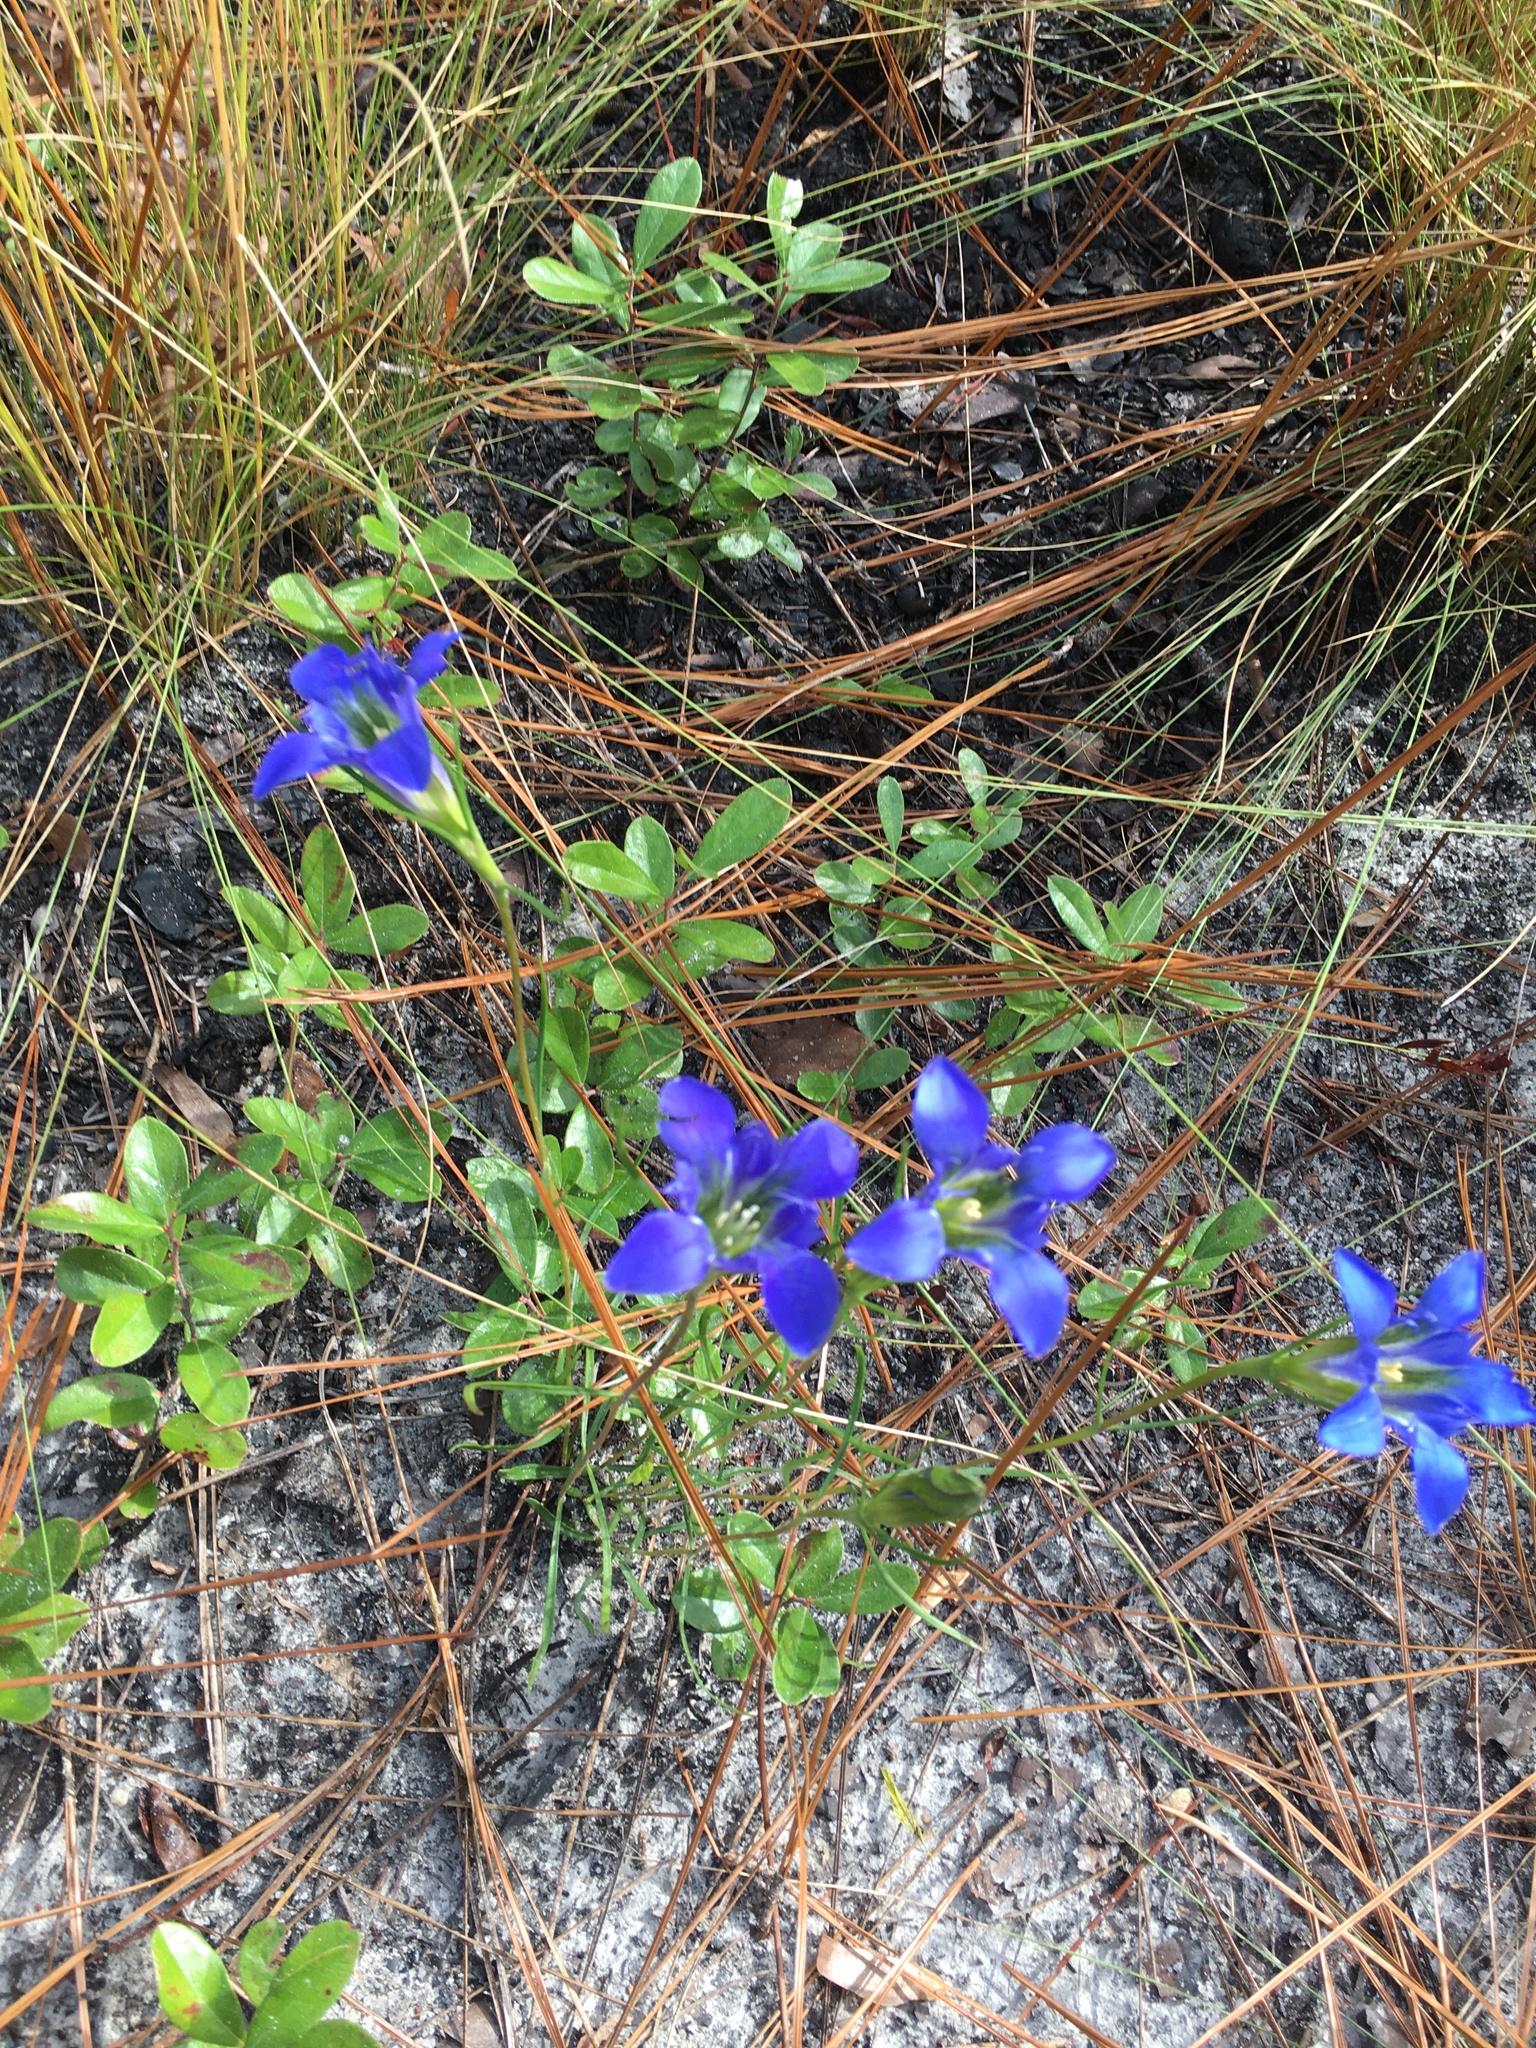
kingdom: Plantae
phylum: Tracheophyta
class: Magnoliopsida
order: Gentianales
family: Gentianaceae
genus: Gentiana
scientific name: Gentiana autumnalis
